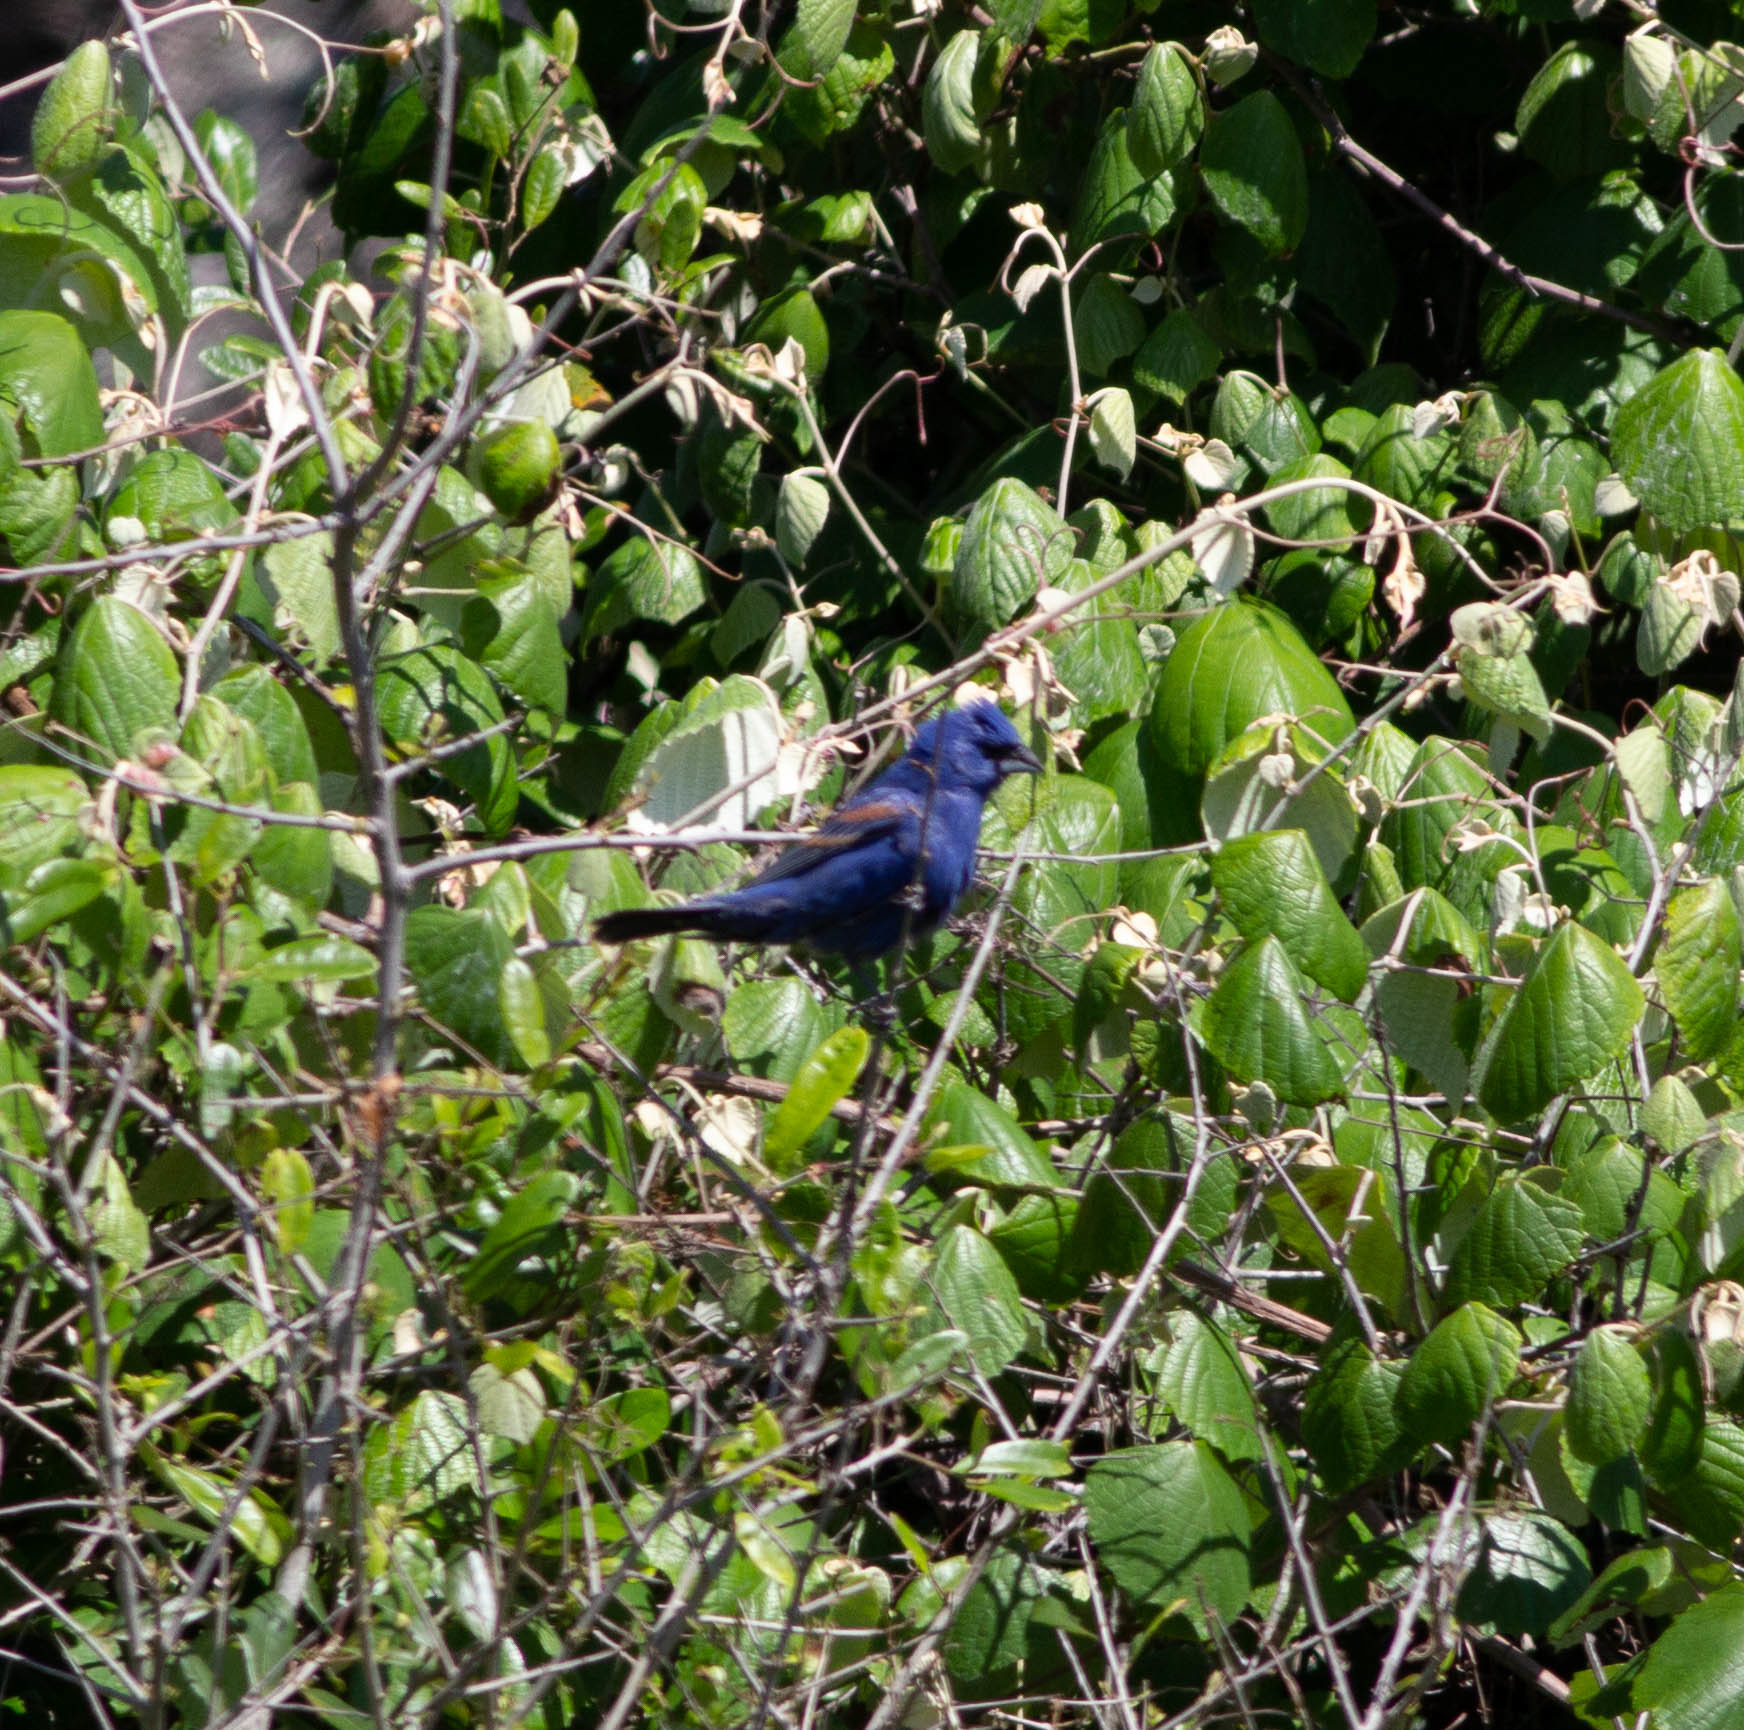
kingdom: Animalia
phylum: Chordata
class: Aves
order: Passeriformes
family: Cardinalidae
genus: Passerina
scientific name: Passerina caerulea
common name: Blue grosbeak
